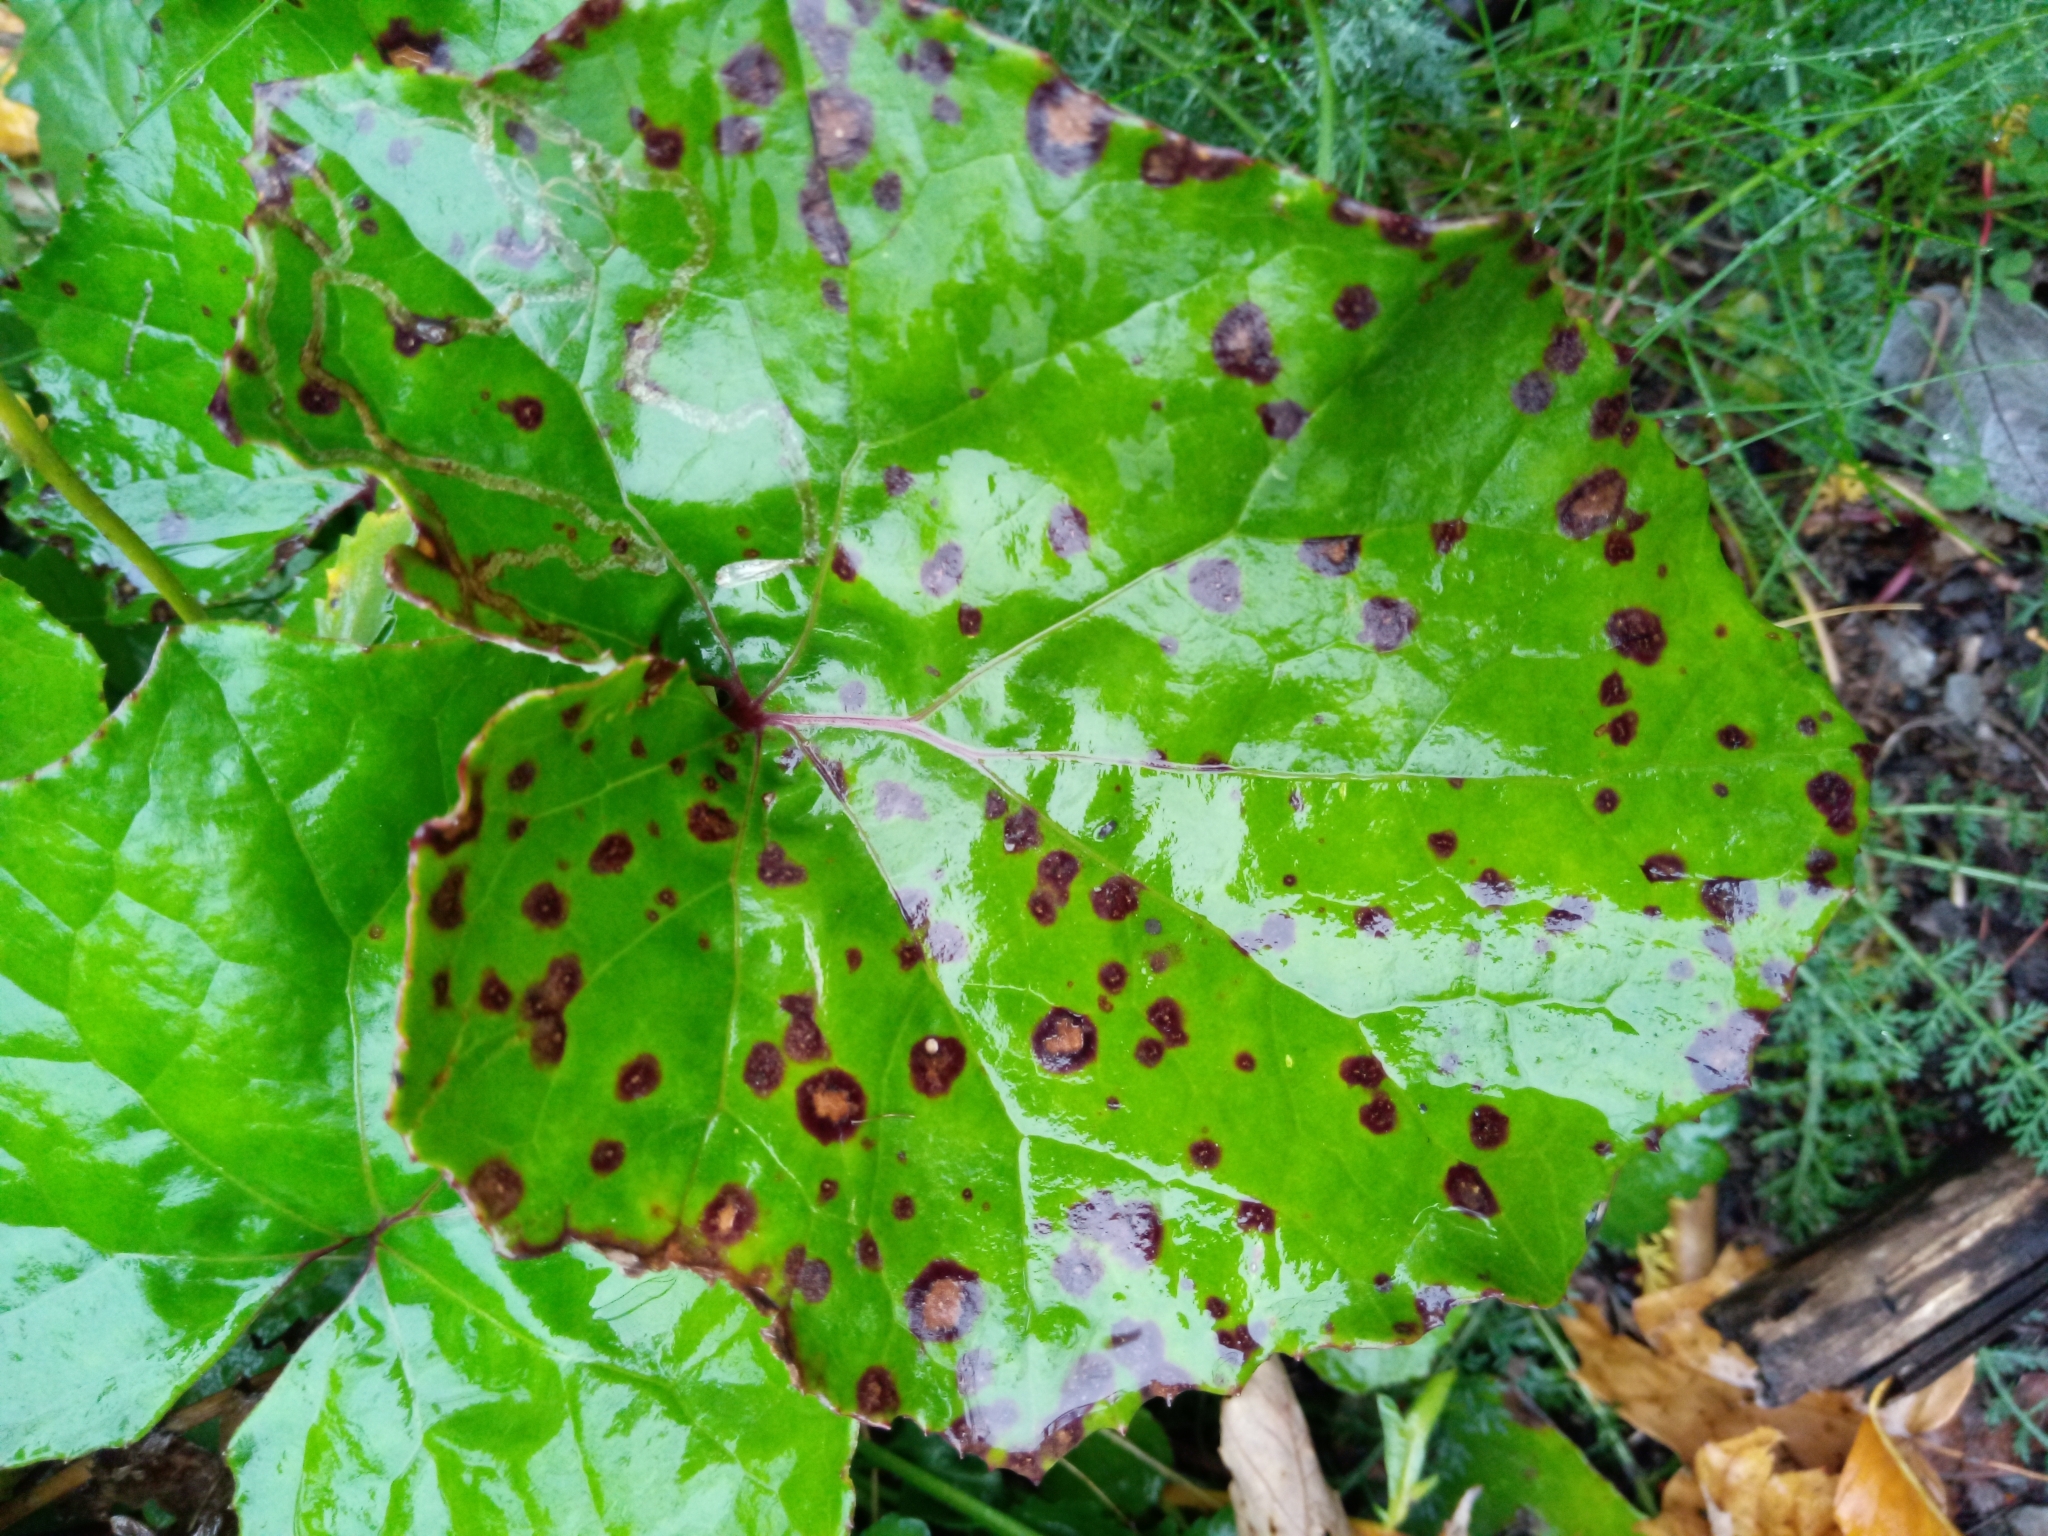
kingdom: Fungi
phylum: Ascomycota
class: Dothideomycetes
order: Mycosphaerellales
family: Mycosphaerellaceae
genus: Ramularia
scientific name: Ramularia brunnea
